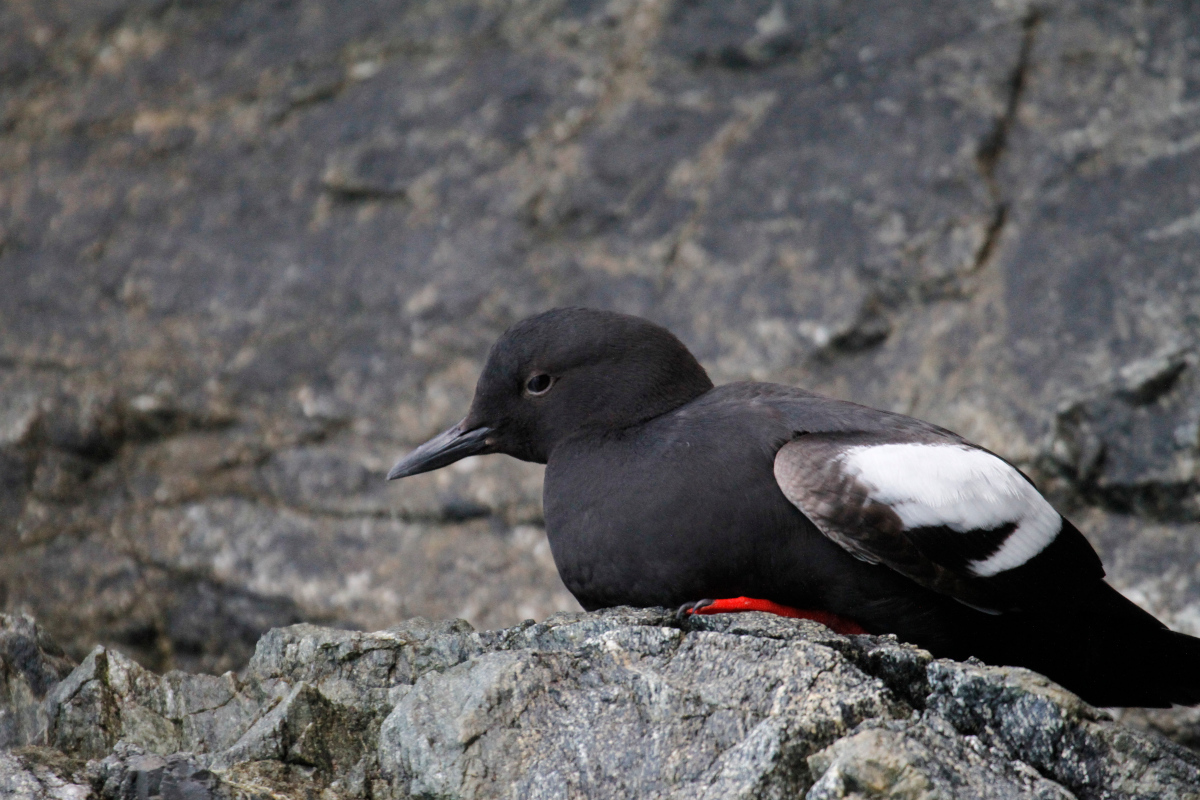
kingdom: Animalia
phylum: Chordata
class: Aves
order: Charadriiformes
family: Alcidae
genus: Cepphus
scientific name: Cepphus columba
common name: Pigeon guillemot
